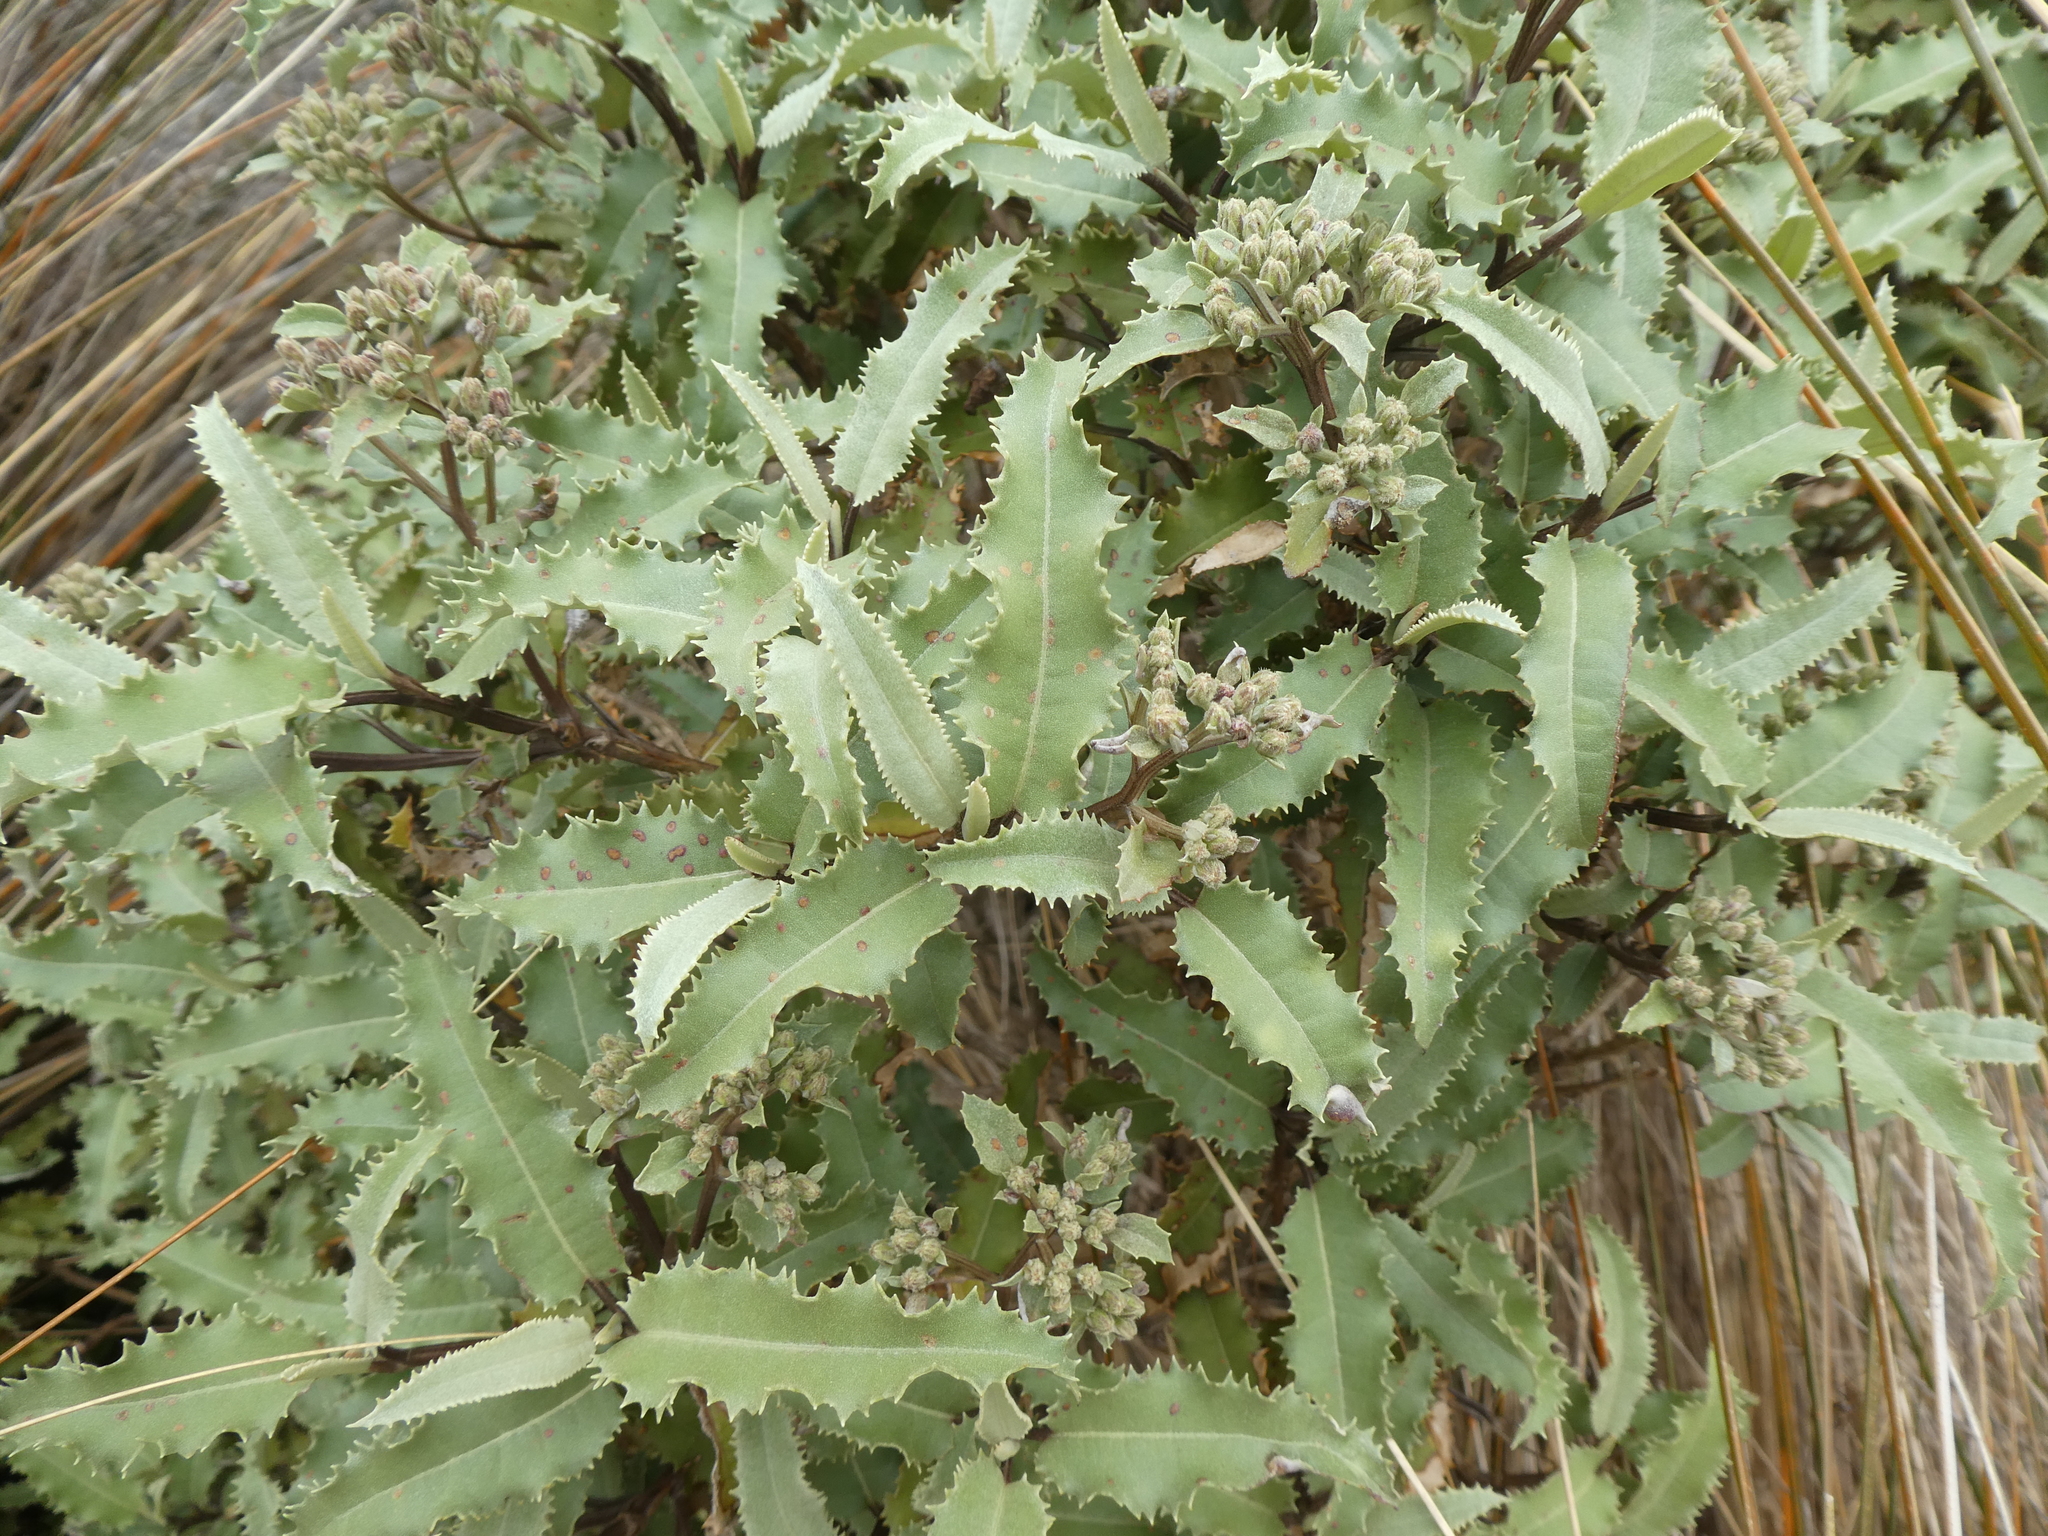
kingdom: Plantae
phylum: Tracheophyta
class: Magnoliopsida
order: Asterales
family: Asteraceae
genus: Olearia
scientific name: Olearia ilicifolia
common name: Maori-holly
